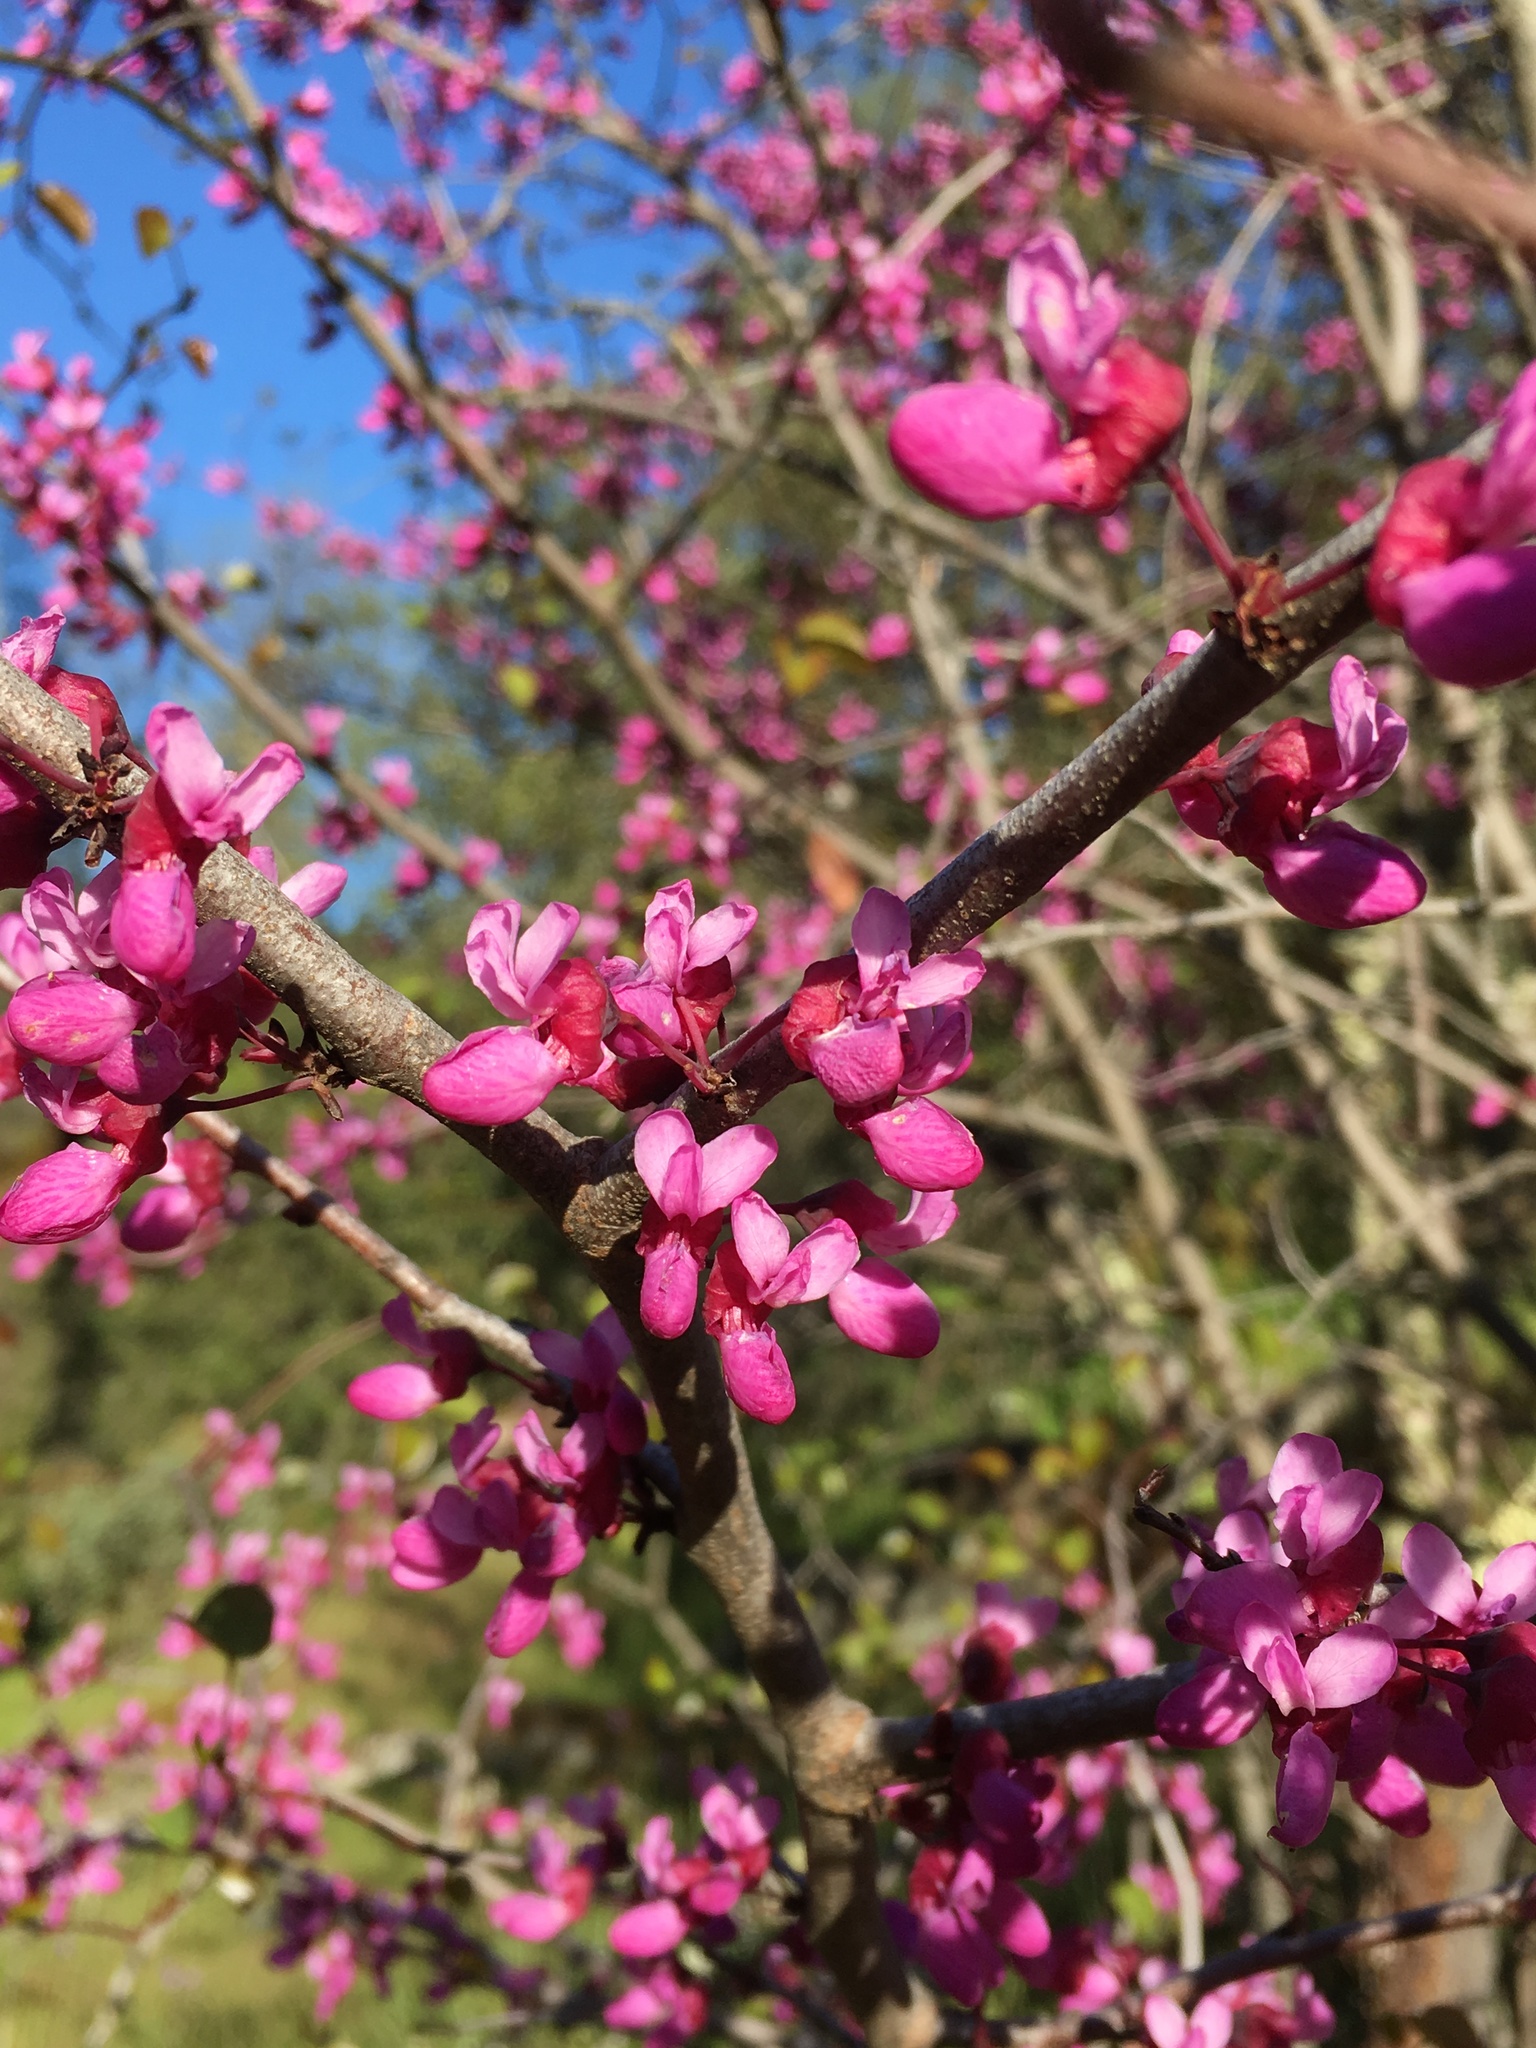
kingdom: Plantae
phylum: Tracheophyta
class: Magnoliopsida
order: Fabales
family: Fabaceae
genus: Cercis
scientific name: Cercis occidentalis
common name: California redbud
